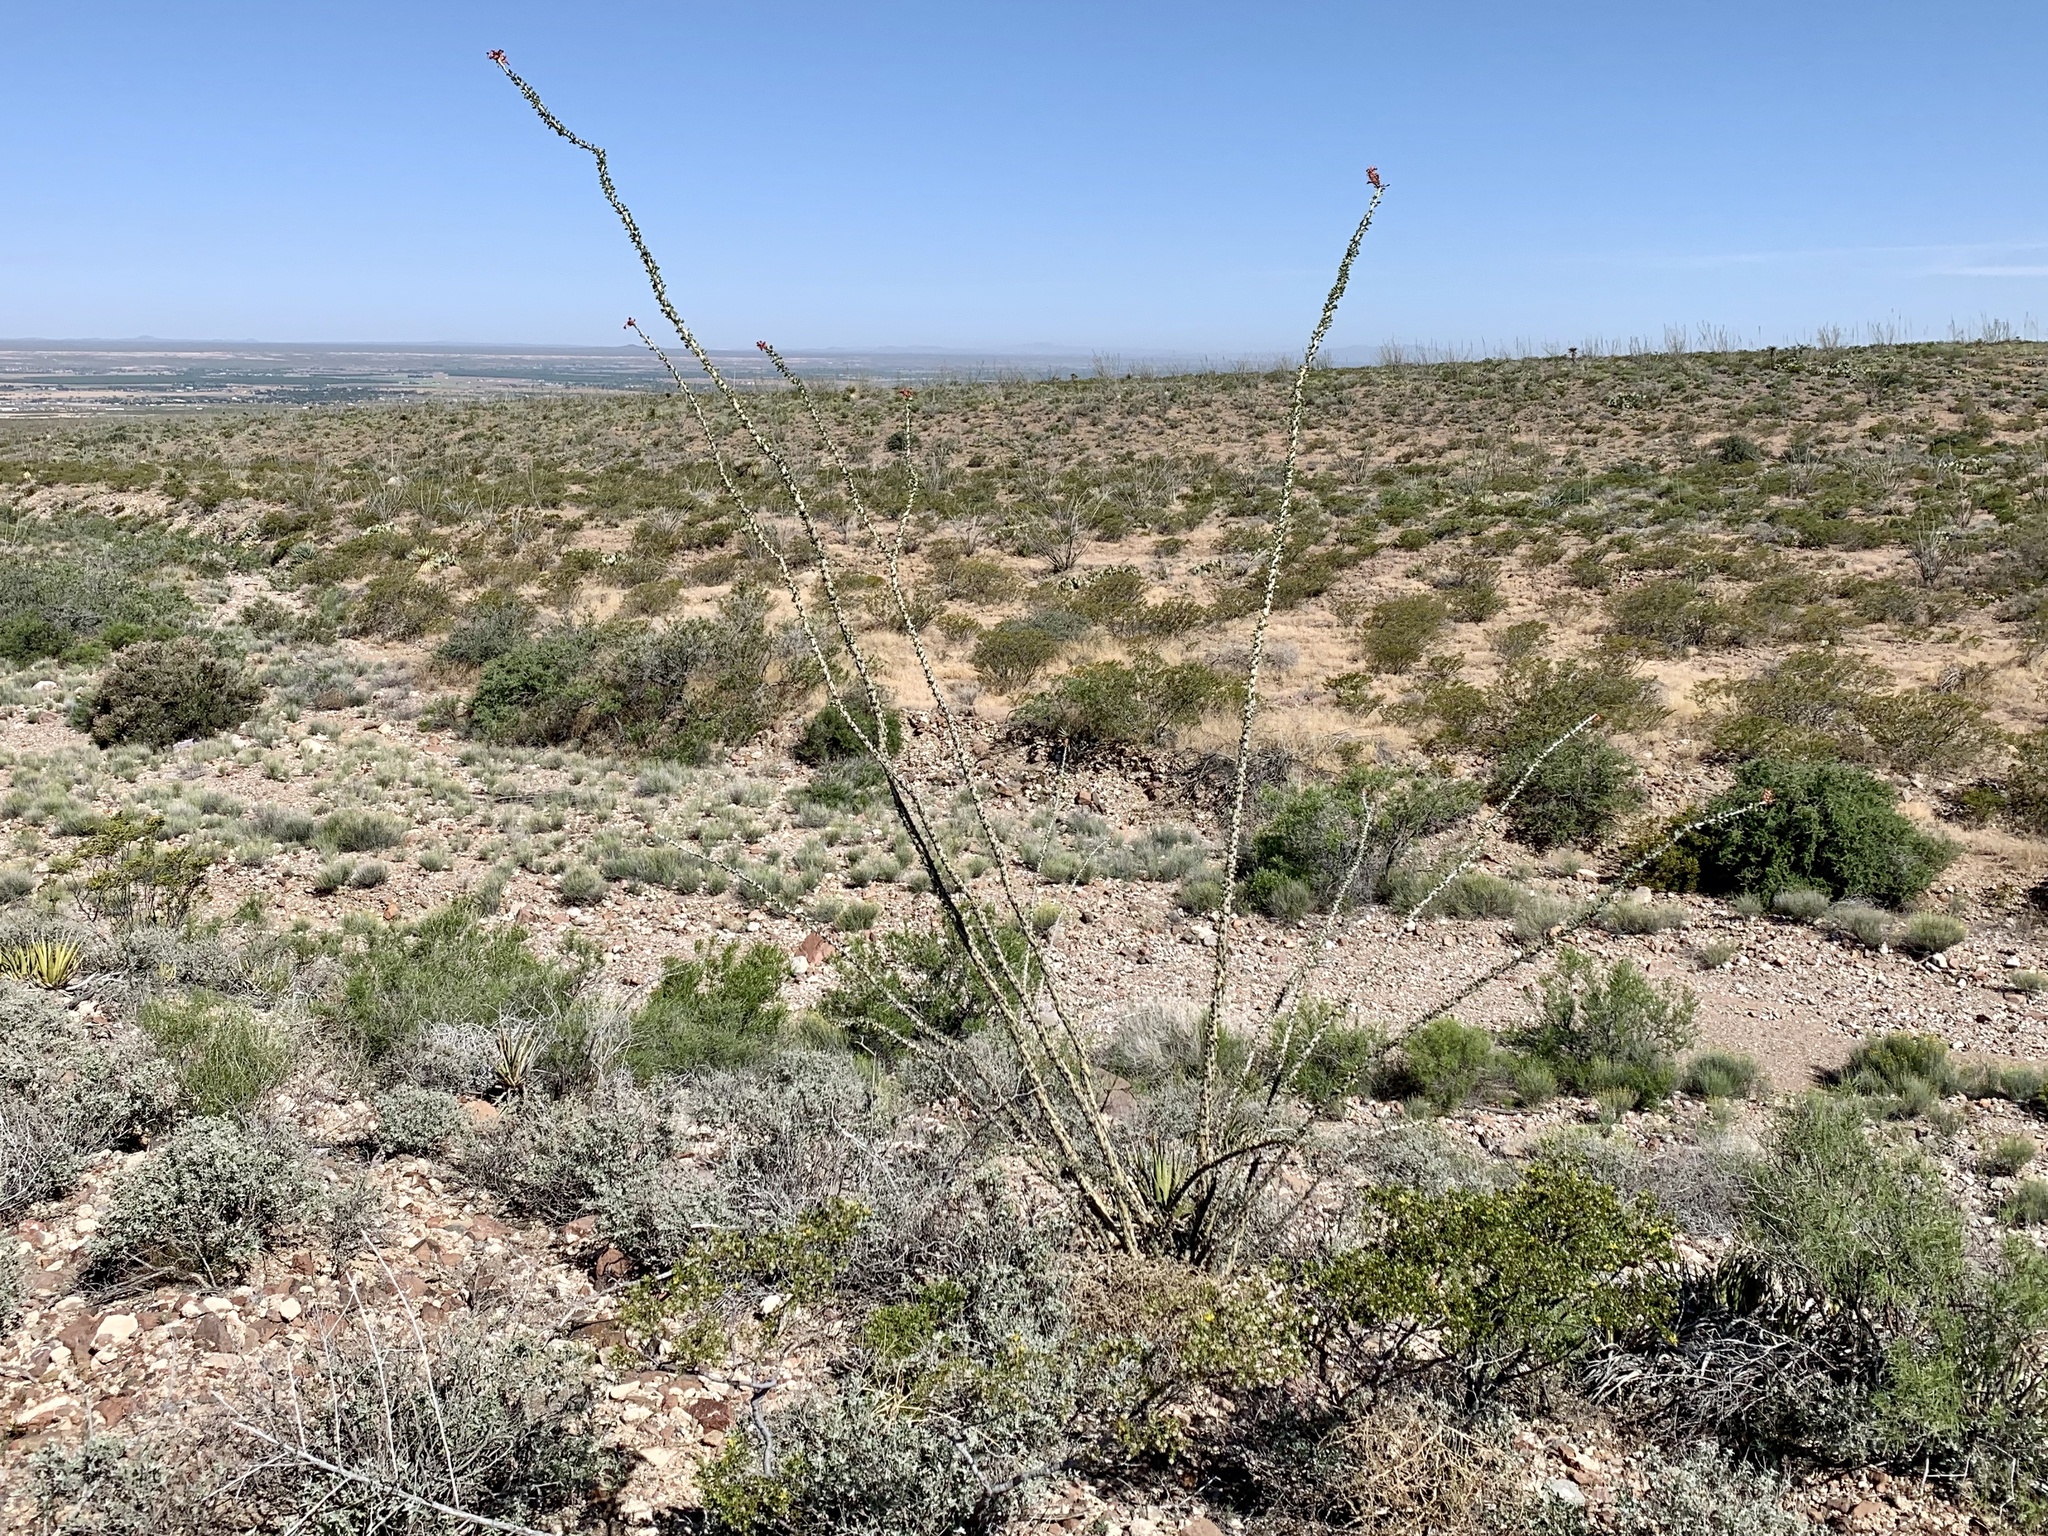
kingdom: Plantae
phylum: Tracheophyta
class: Magnoliopsida
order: Ericales
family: Fouquieriaceae
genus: Fouquieria
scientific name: Fouquieria splendens
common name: Vine-cactus
